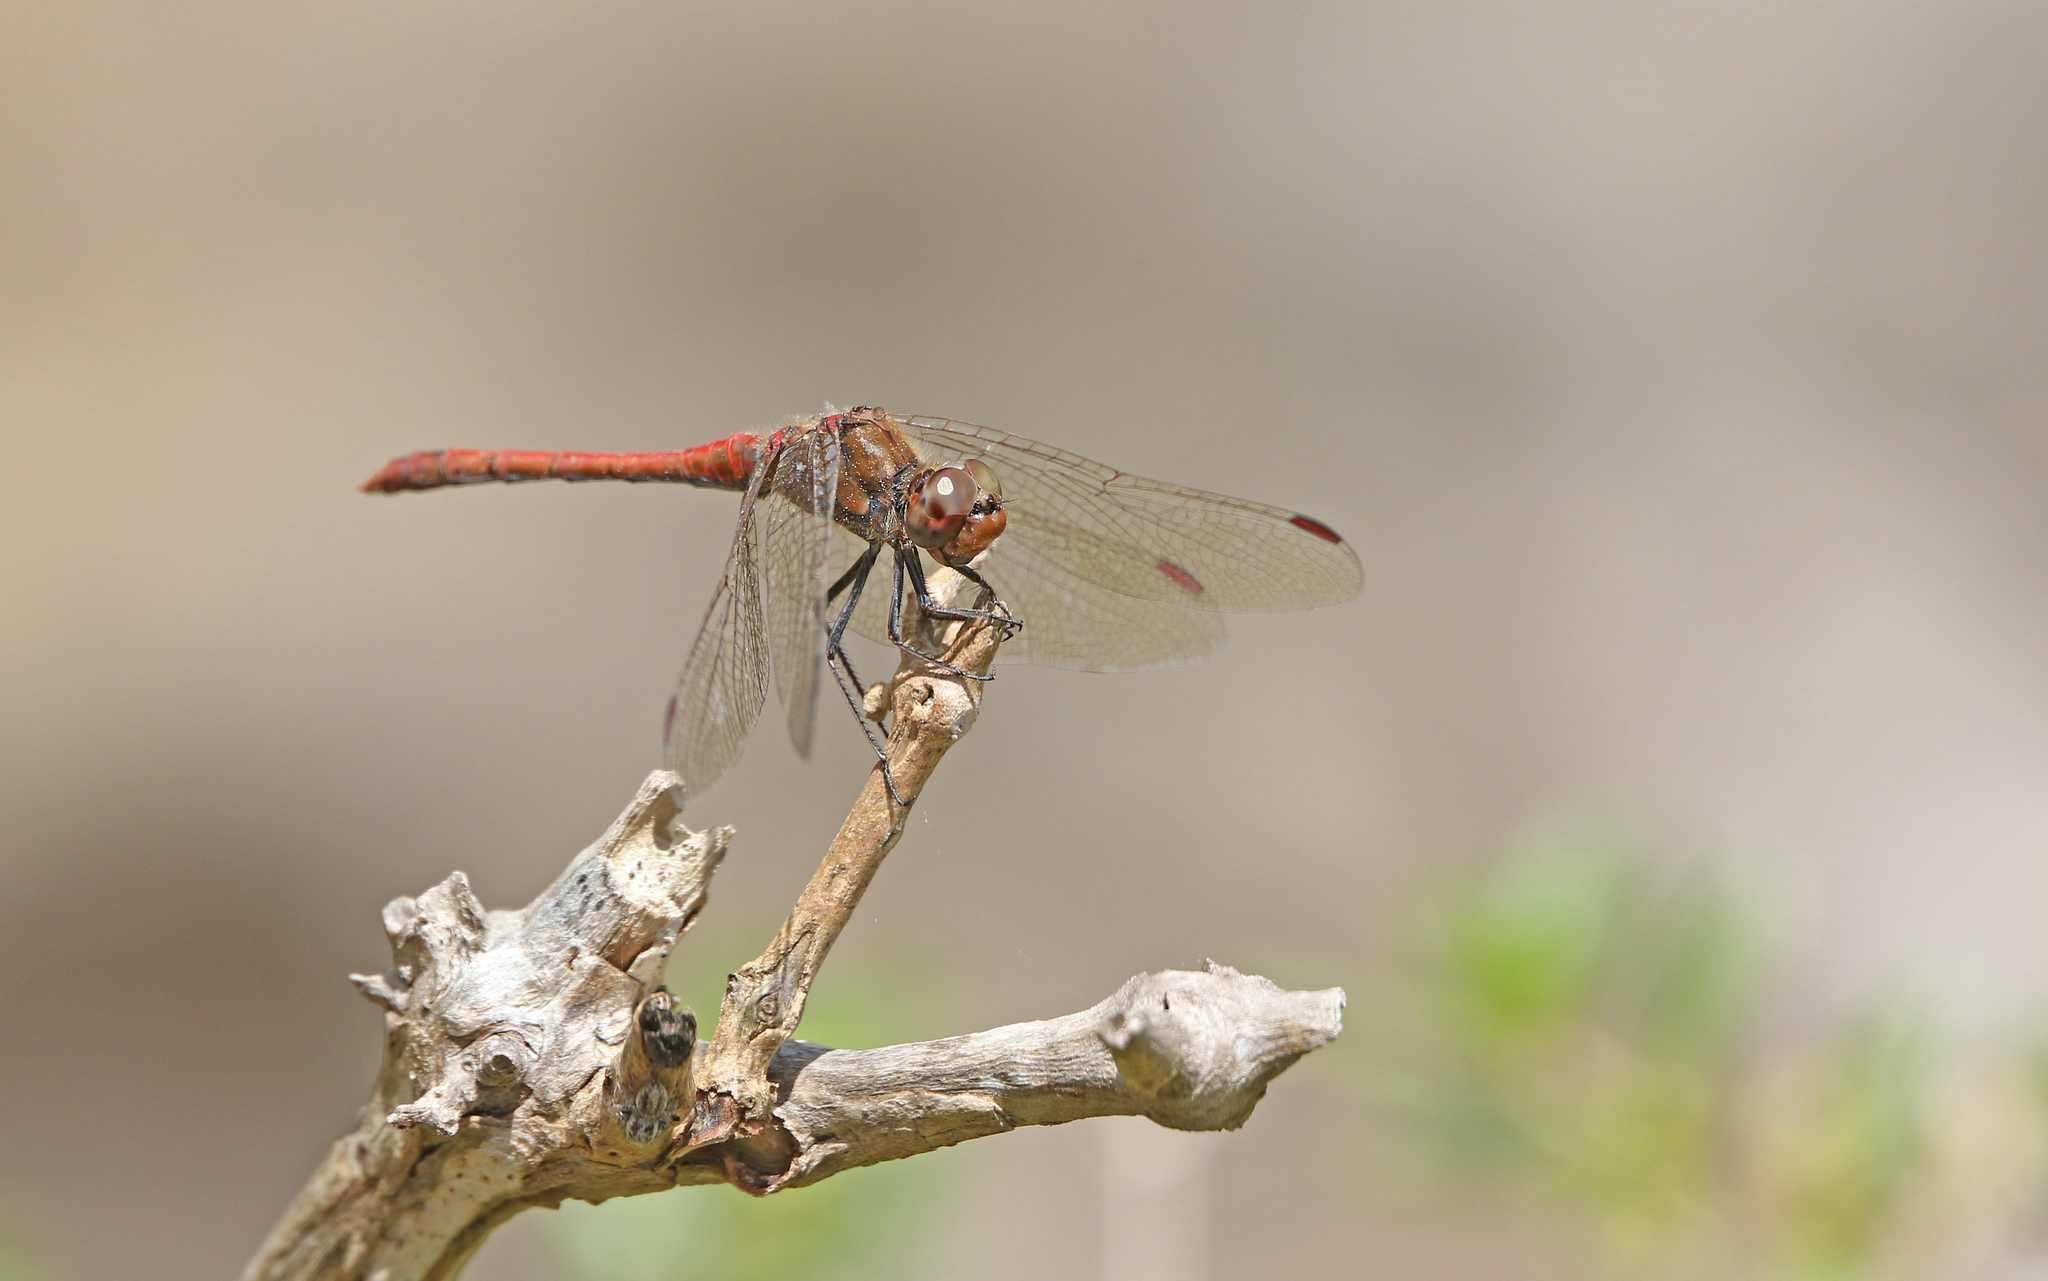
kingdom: Animalia
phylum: Arthropoda
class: Insecta
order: Odonata
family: Libellulidae
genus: Sympetrum
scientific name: Sympetrum nigrifemur
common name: Island darter
